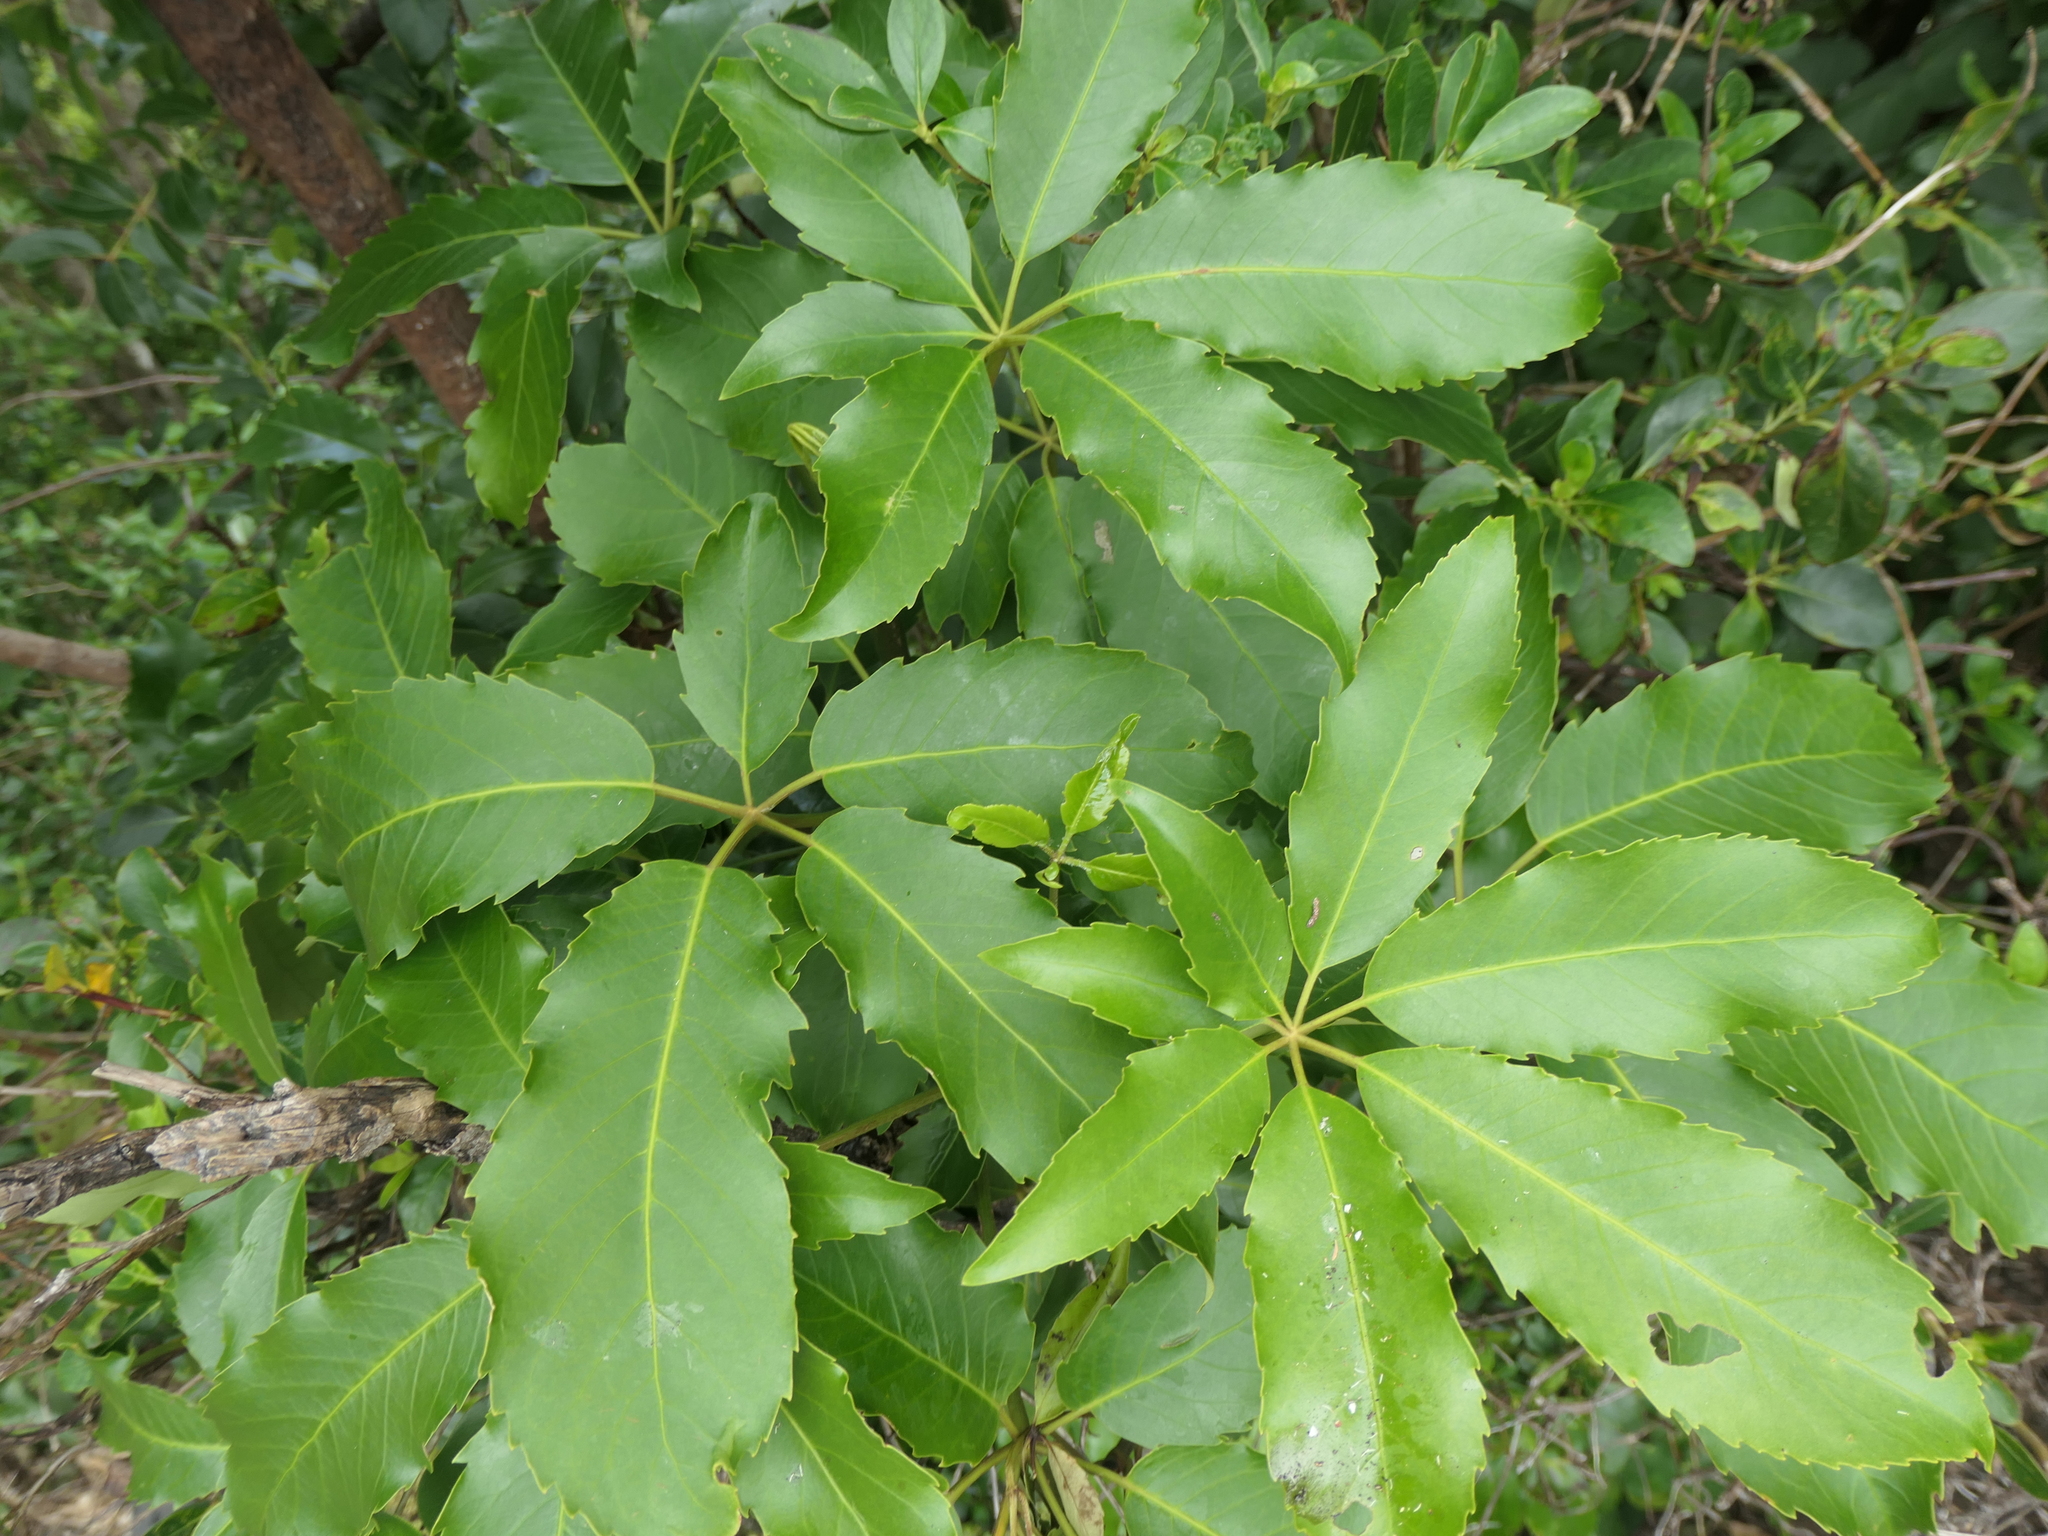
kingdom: Plantae
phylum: Tracheophyta
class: Magnoliopsida
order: Apiales
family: Araliaceae
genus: Neopanax
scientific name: Neopanax arboreus
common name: Five-fingers
